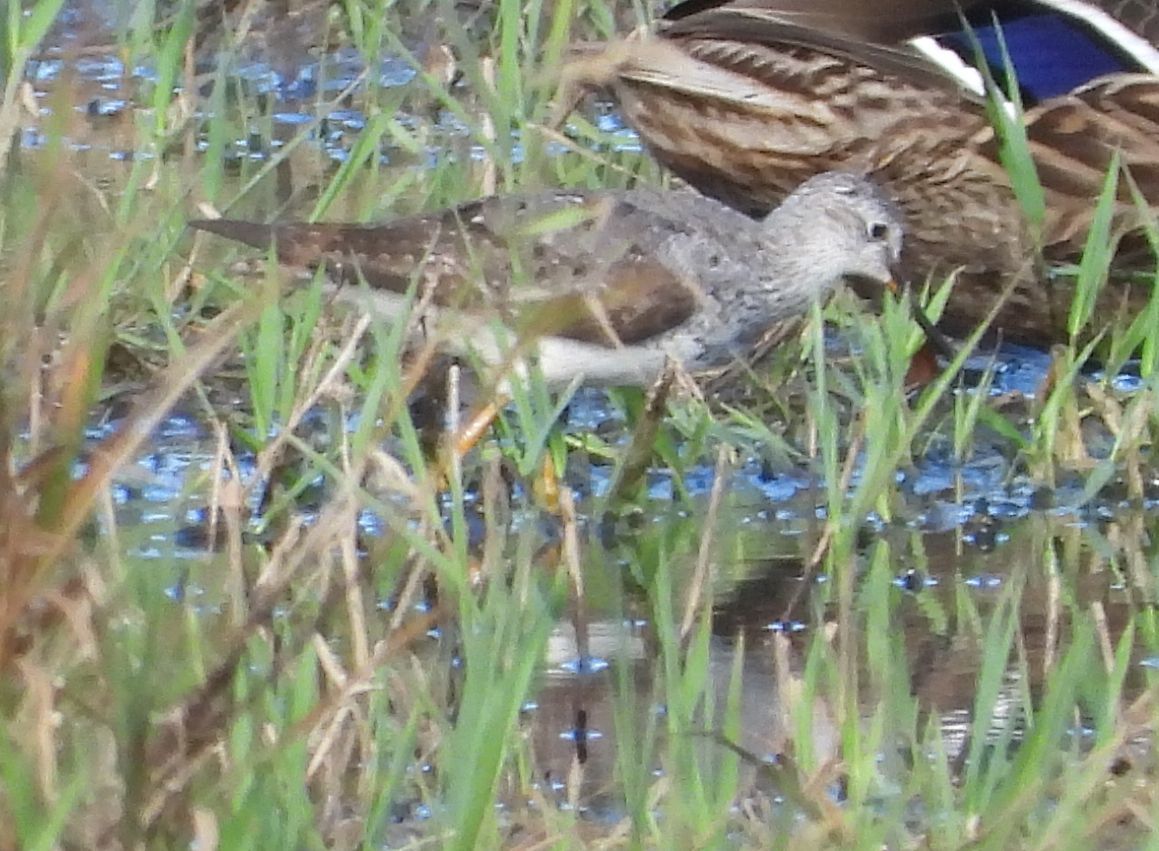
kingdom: Animalia
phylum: Chordata
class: Aves
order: Charadriiformes
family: Scolopacidae
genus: Tringa
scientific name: Tringa flavipes
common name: Lesser yellowlegs
